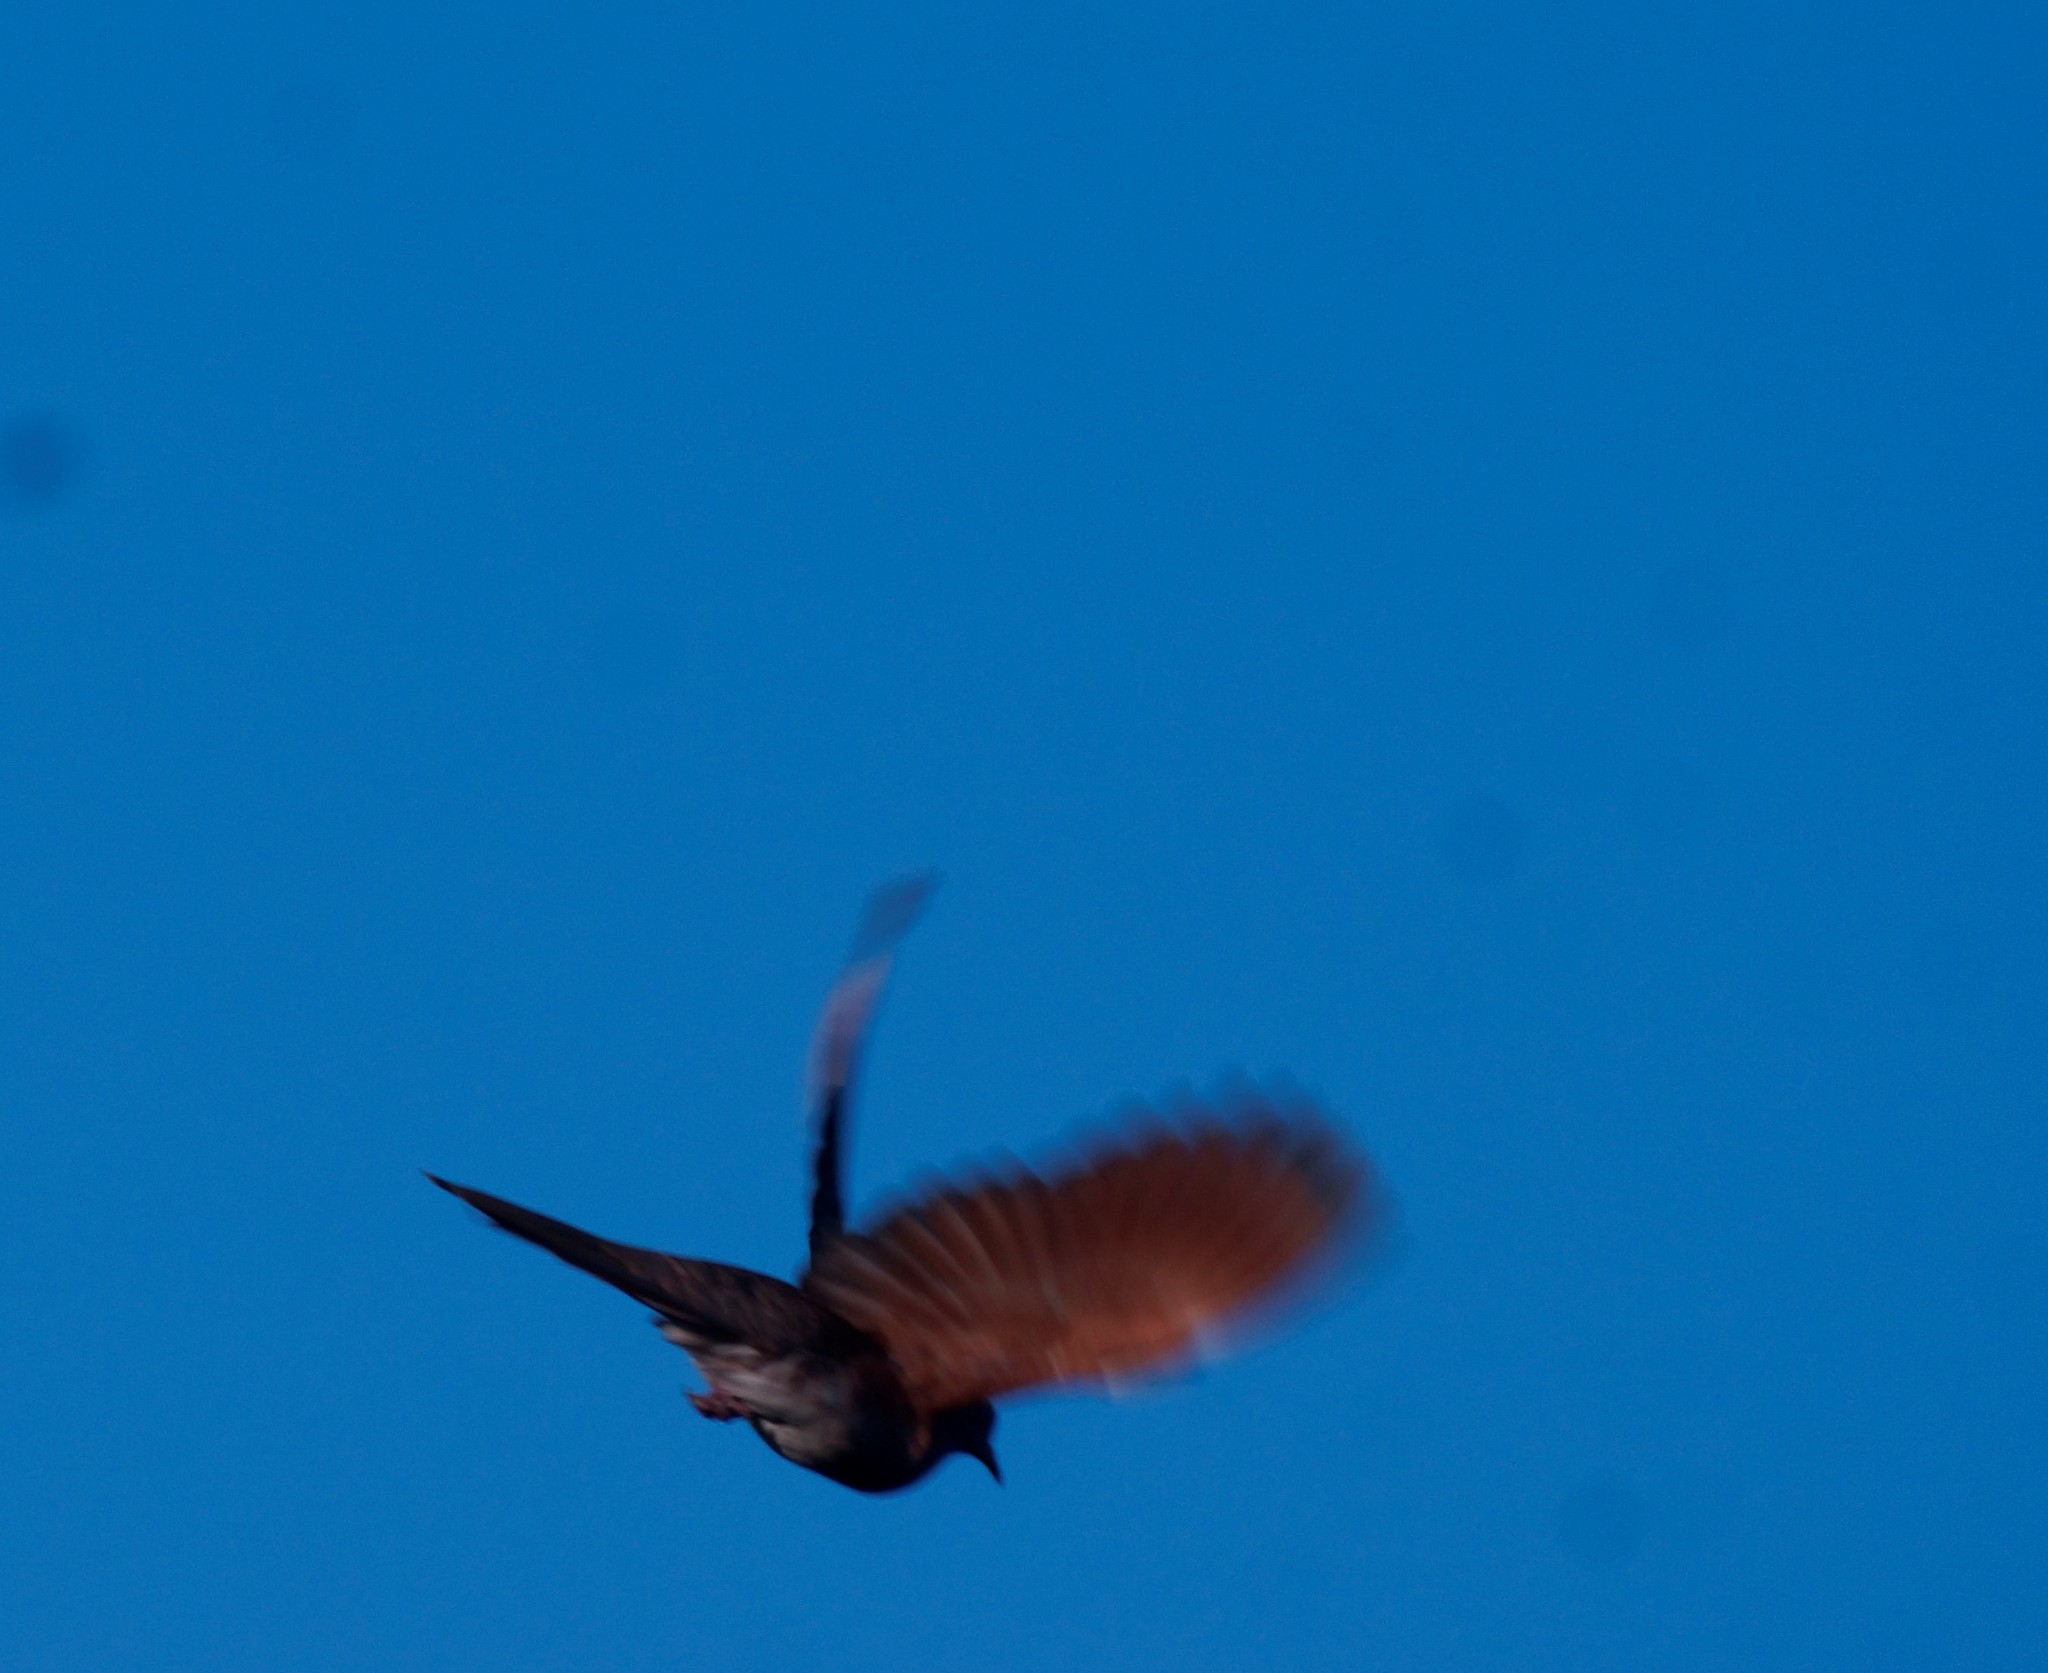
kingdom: Animalia
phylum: Chordata
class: Aves
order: Columbiformes
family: Columbidae
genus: Geopelia
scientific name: Geopelia humeralis
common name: Bar-shouldered dove
